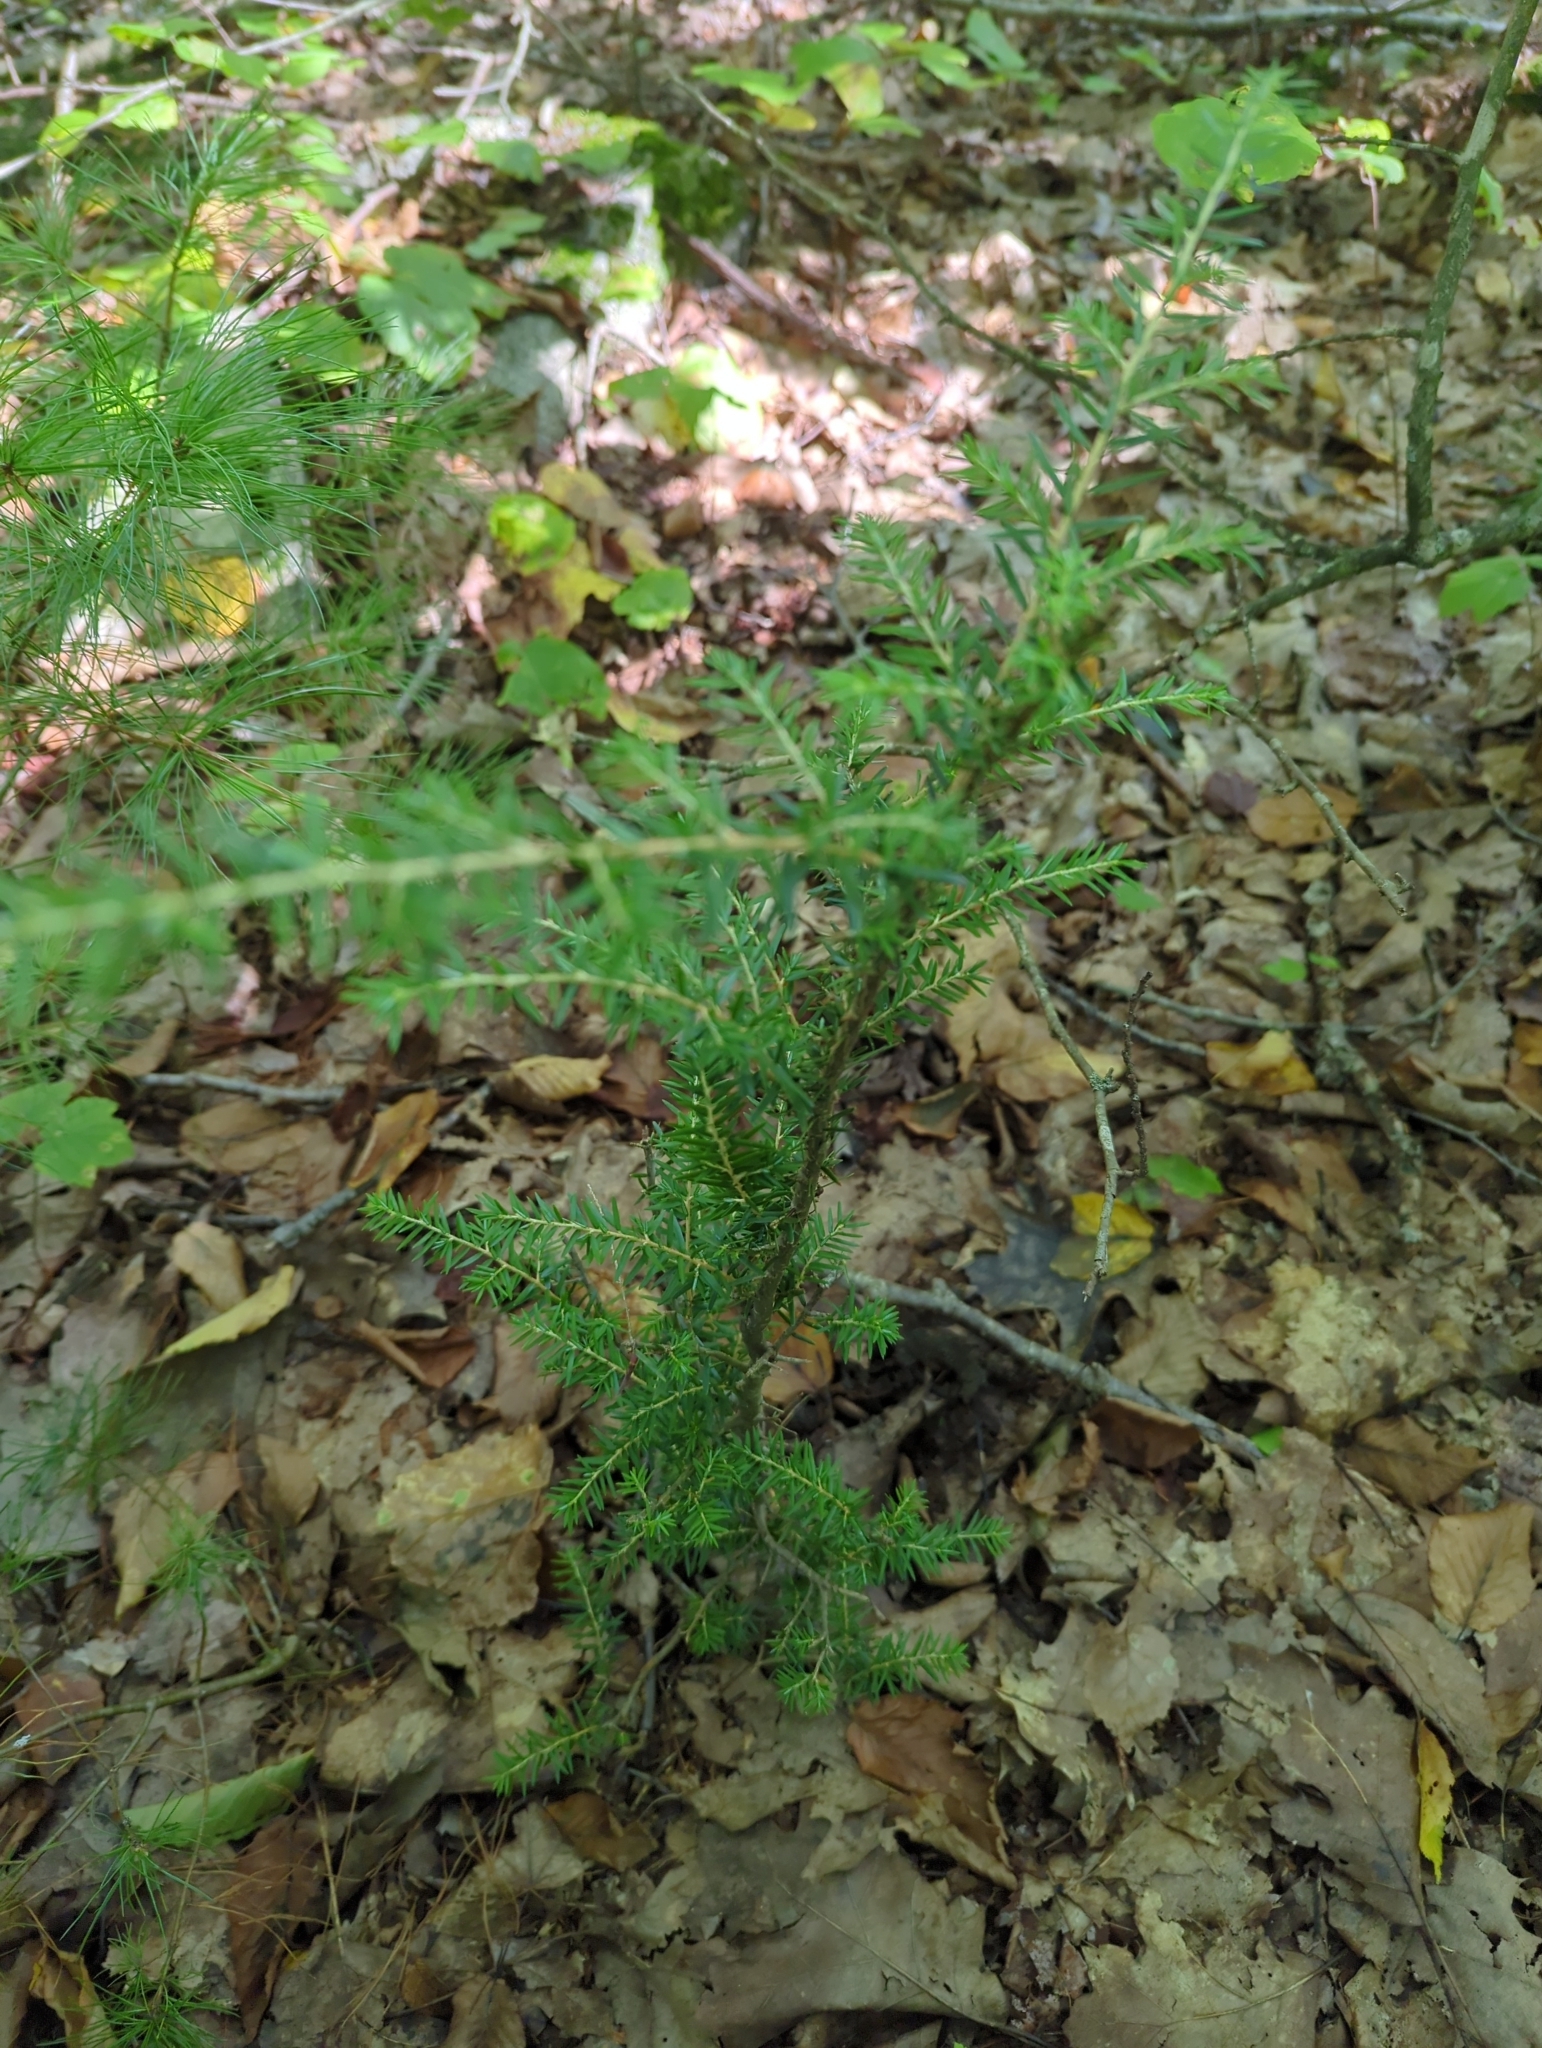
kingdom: Plantae
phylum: Tracheophyta
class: Pinopsida
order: Pinales
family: Pinaceae
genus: Tsuga
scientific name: Tsuga canadensis
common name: Eastern hemlock
